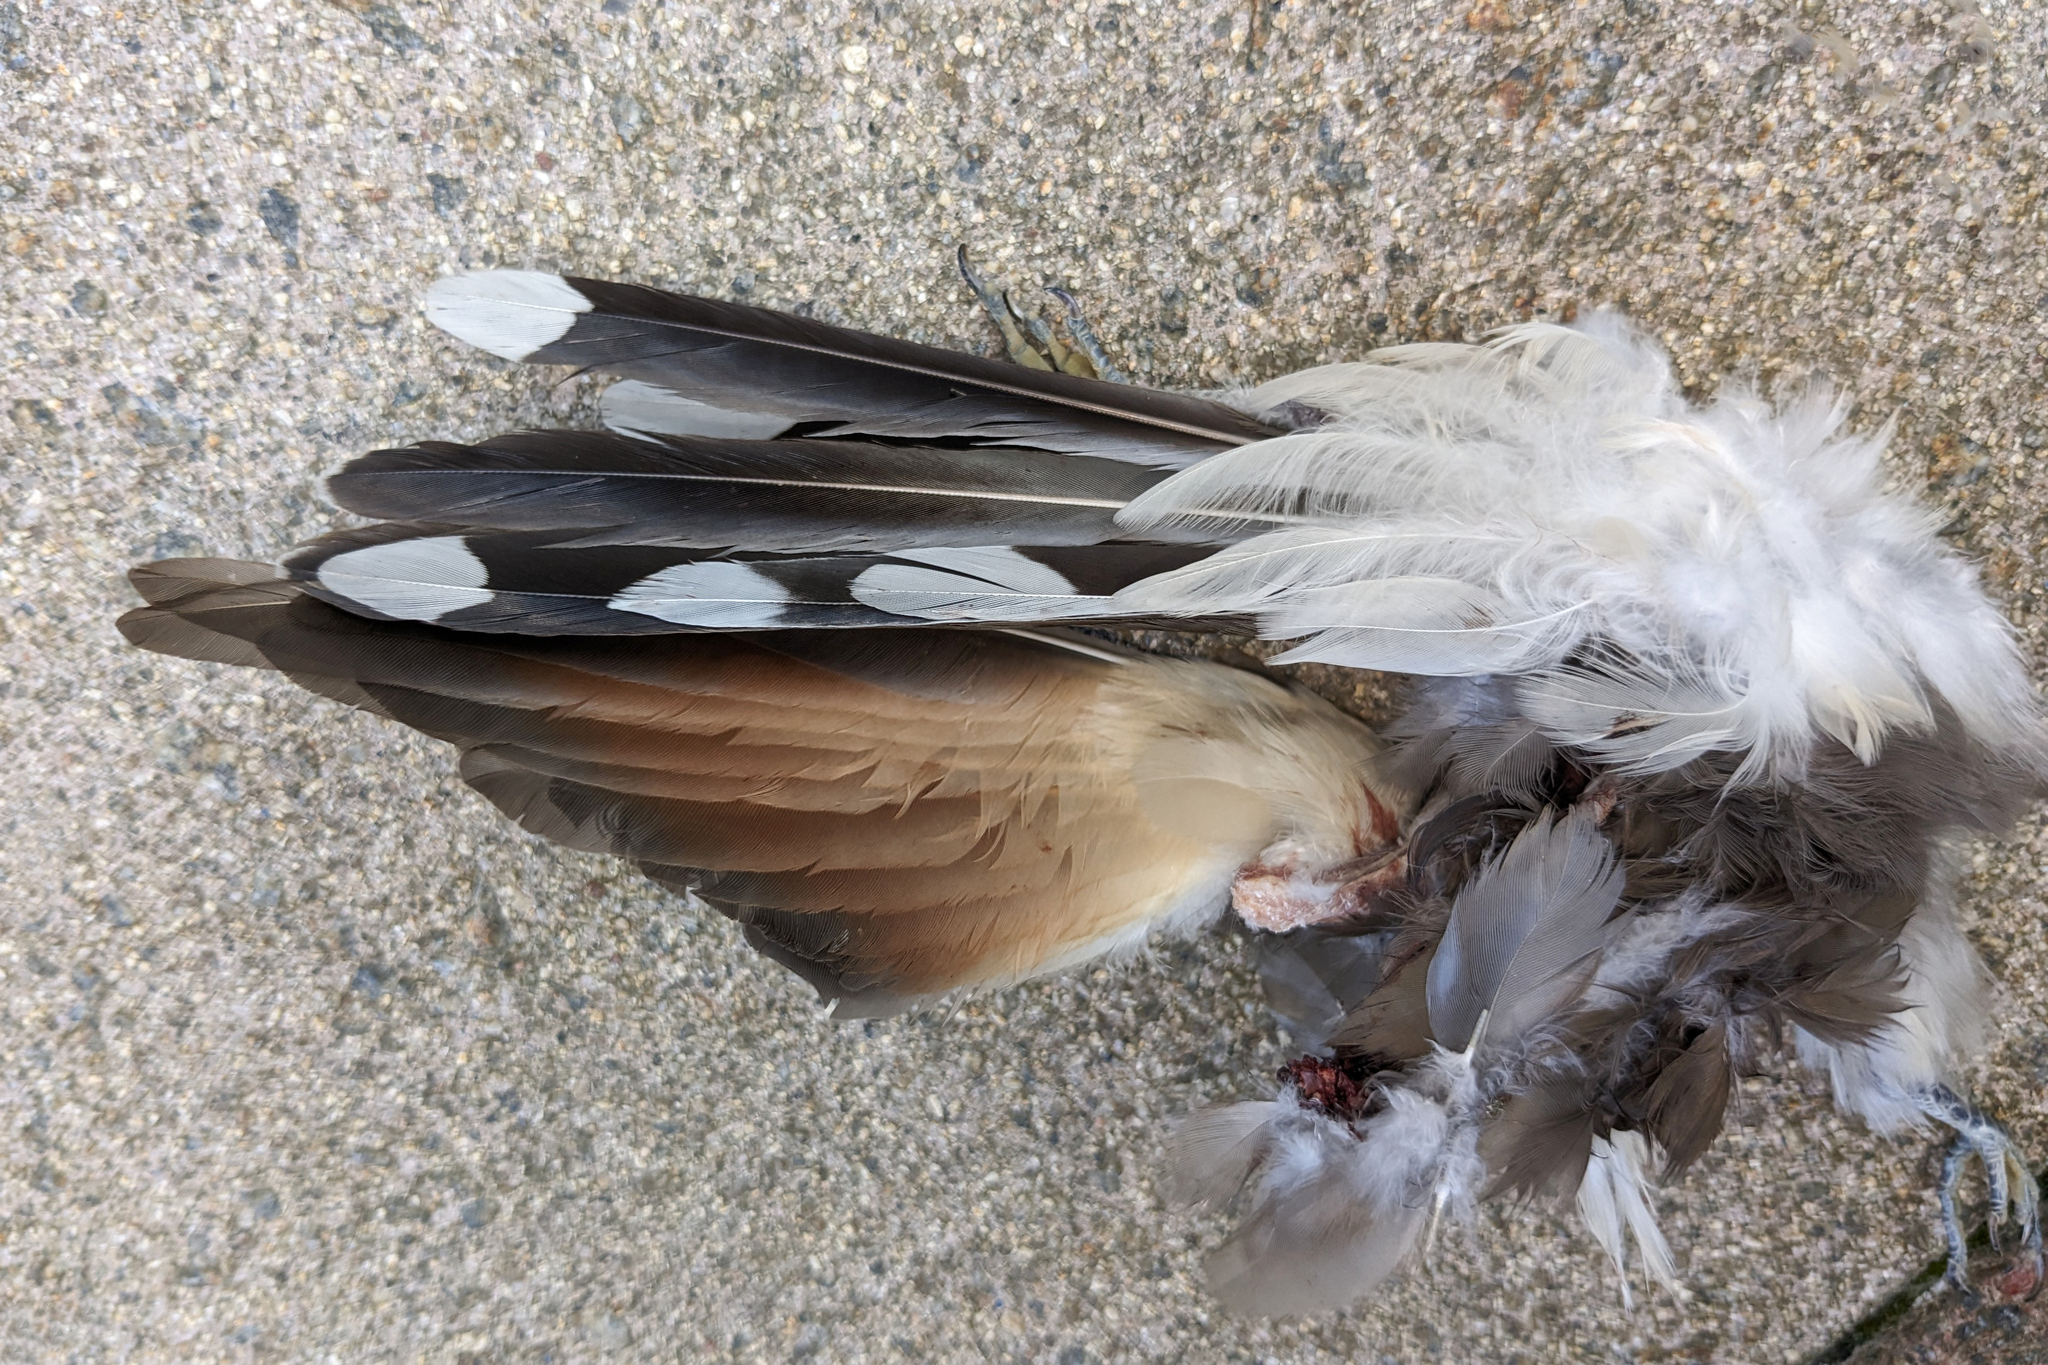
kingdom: Animalia
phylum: Chordata
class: Aves
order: Cuculiformes
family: Cuculidae
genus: Coccyzus
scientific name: Coccyzus americanus
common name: Yellow-billed cuckoo
